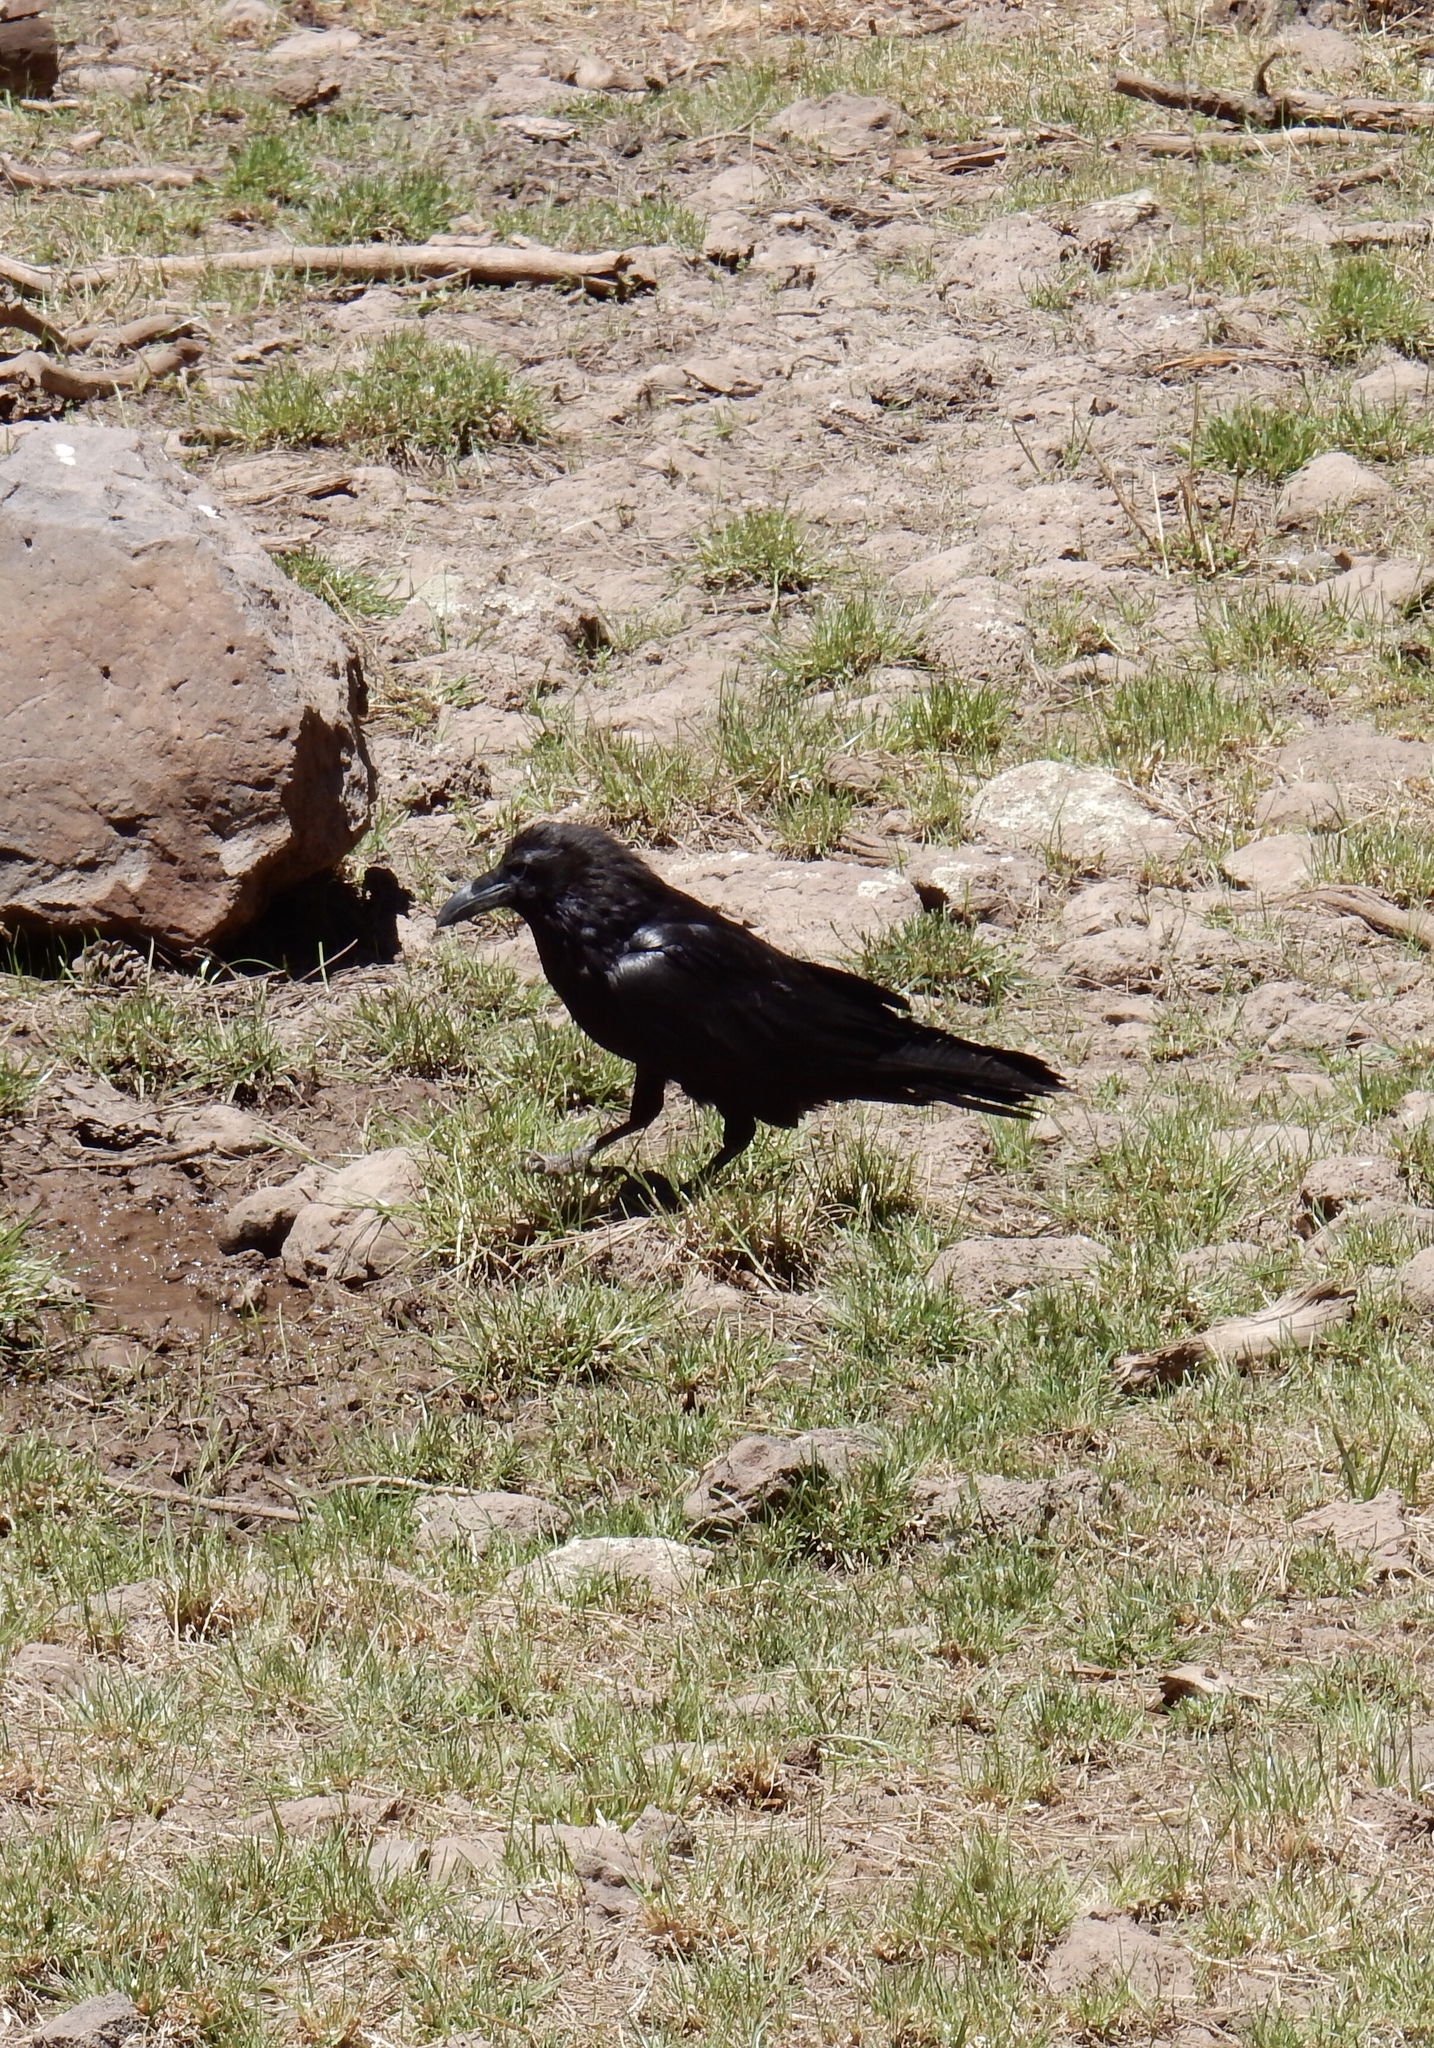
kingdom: Animalia
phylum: Chordata
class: Aves
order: Passeriformes
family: Corvidae
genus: Corvus
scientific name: Corvus corax
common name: Common raven
